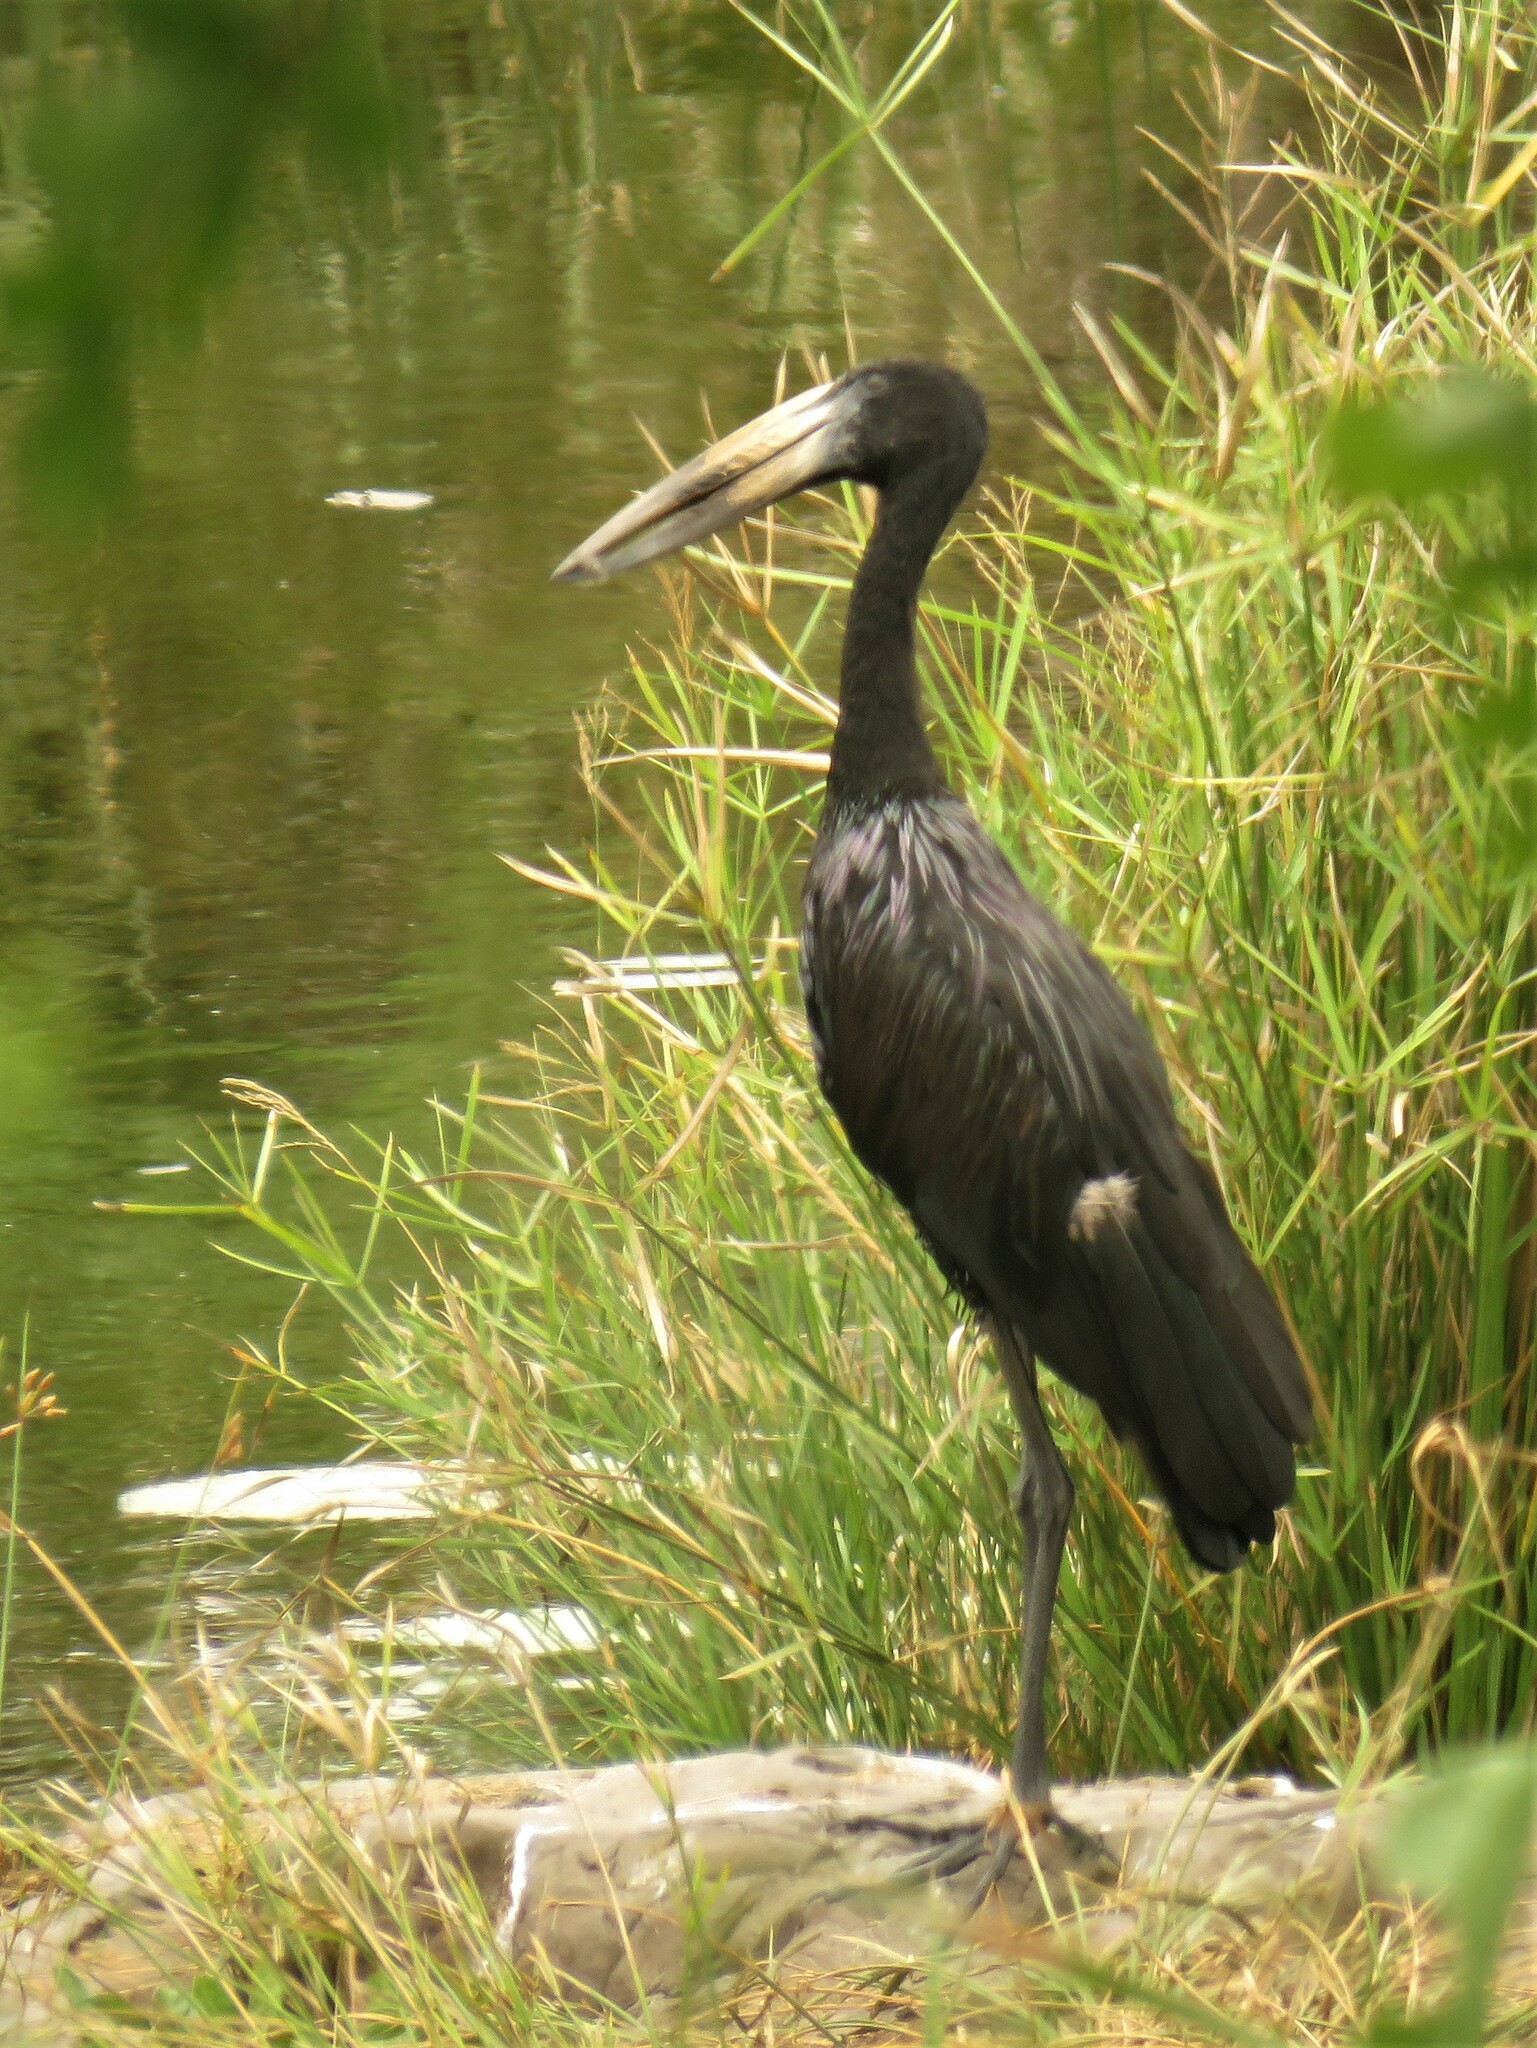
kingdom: Animalia
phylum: Chordata
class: Aves
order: Ciconiiformes
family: Ciconiidae
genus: Anastomus
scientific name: Anastomus lamelligerus
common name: African openbill
